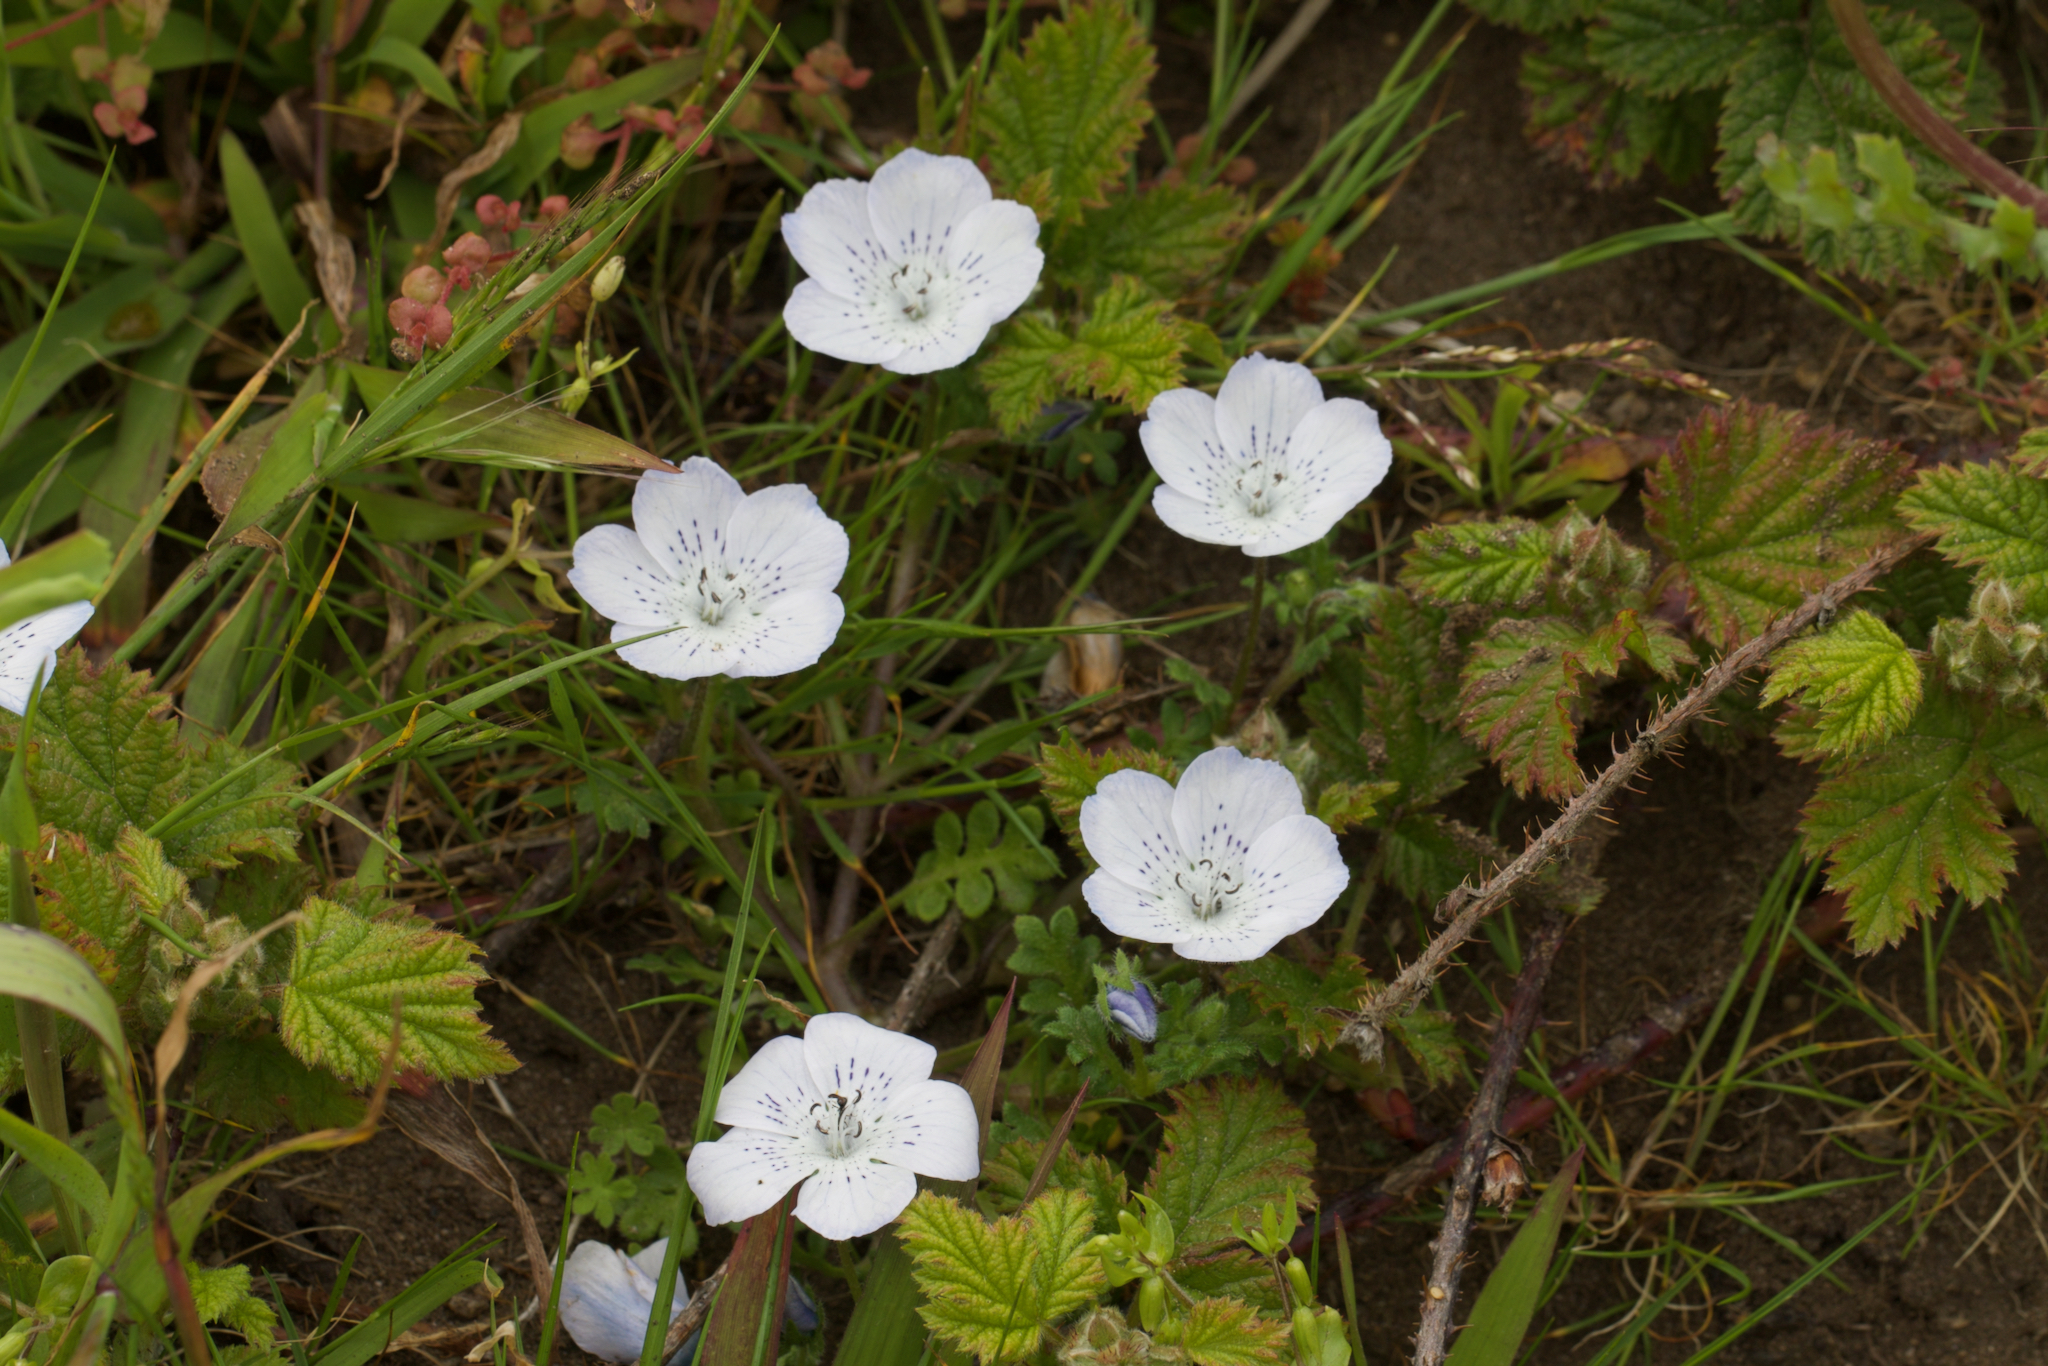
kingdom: Plantae
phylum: Tracheophyta
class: Magnoliopsida
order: Boraginales
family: Hydrophyllaceae
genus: Nemophila
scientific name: Nemophila menziesii
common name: Baby's-blue-eyes
